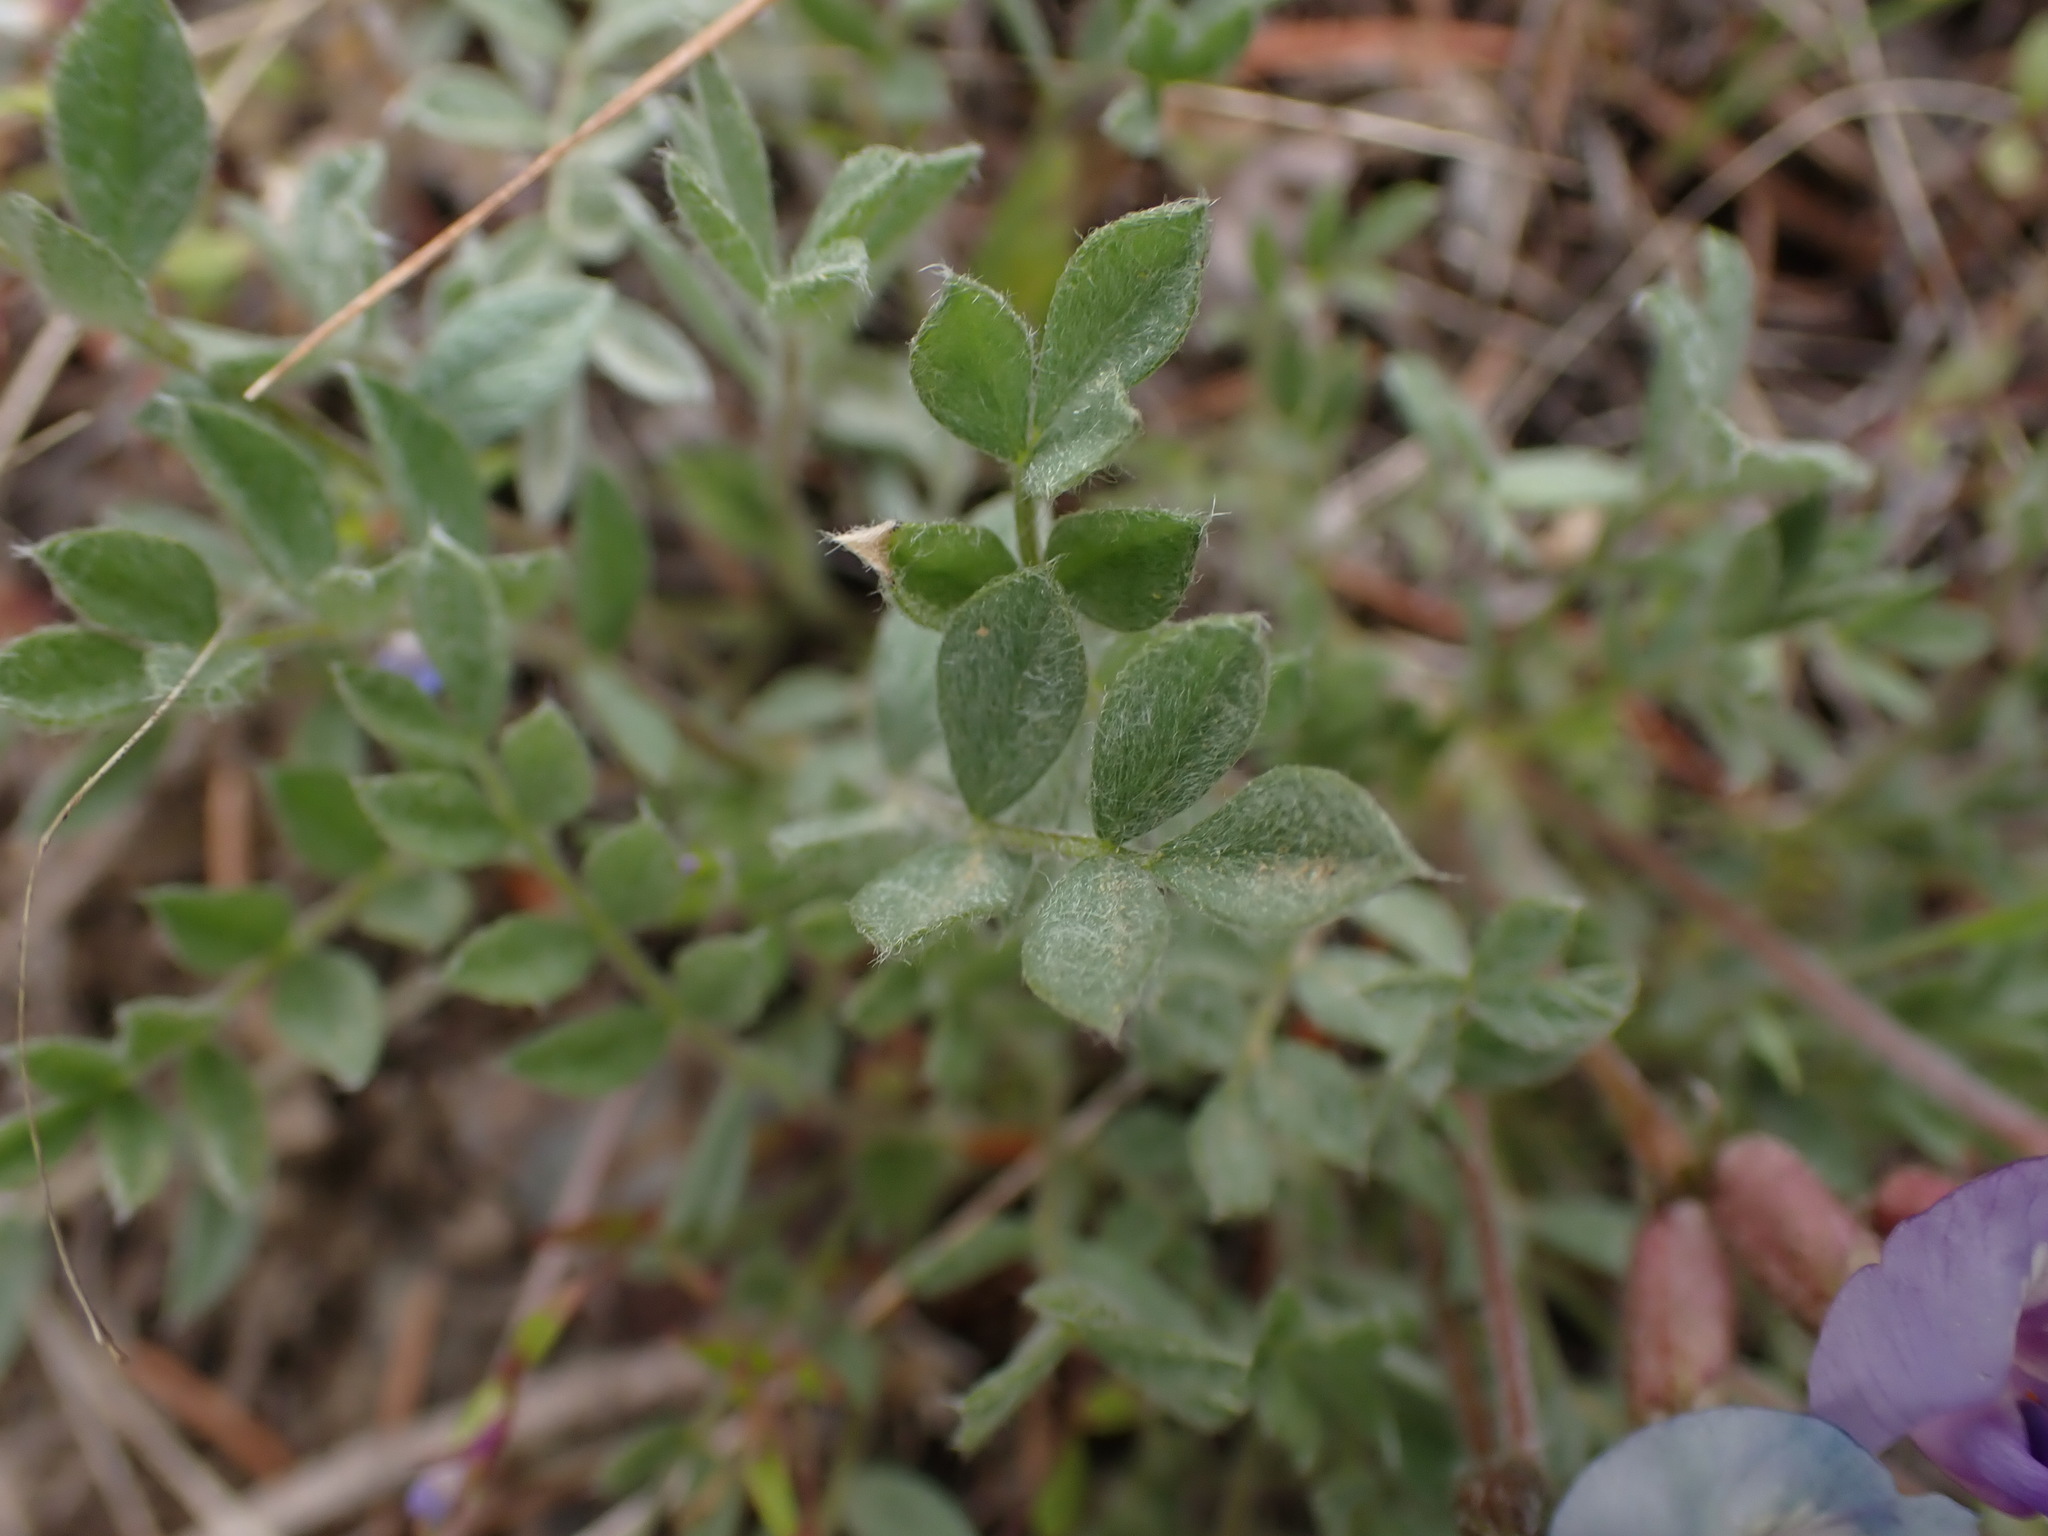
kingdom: Plantae
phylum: Tracheophyta
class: Magnoliopsida
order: Fabales
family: Fabaceae
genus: Astragalus
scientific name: Astragalus purshii
